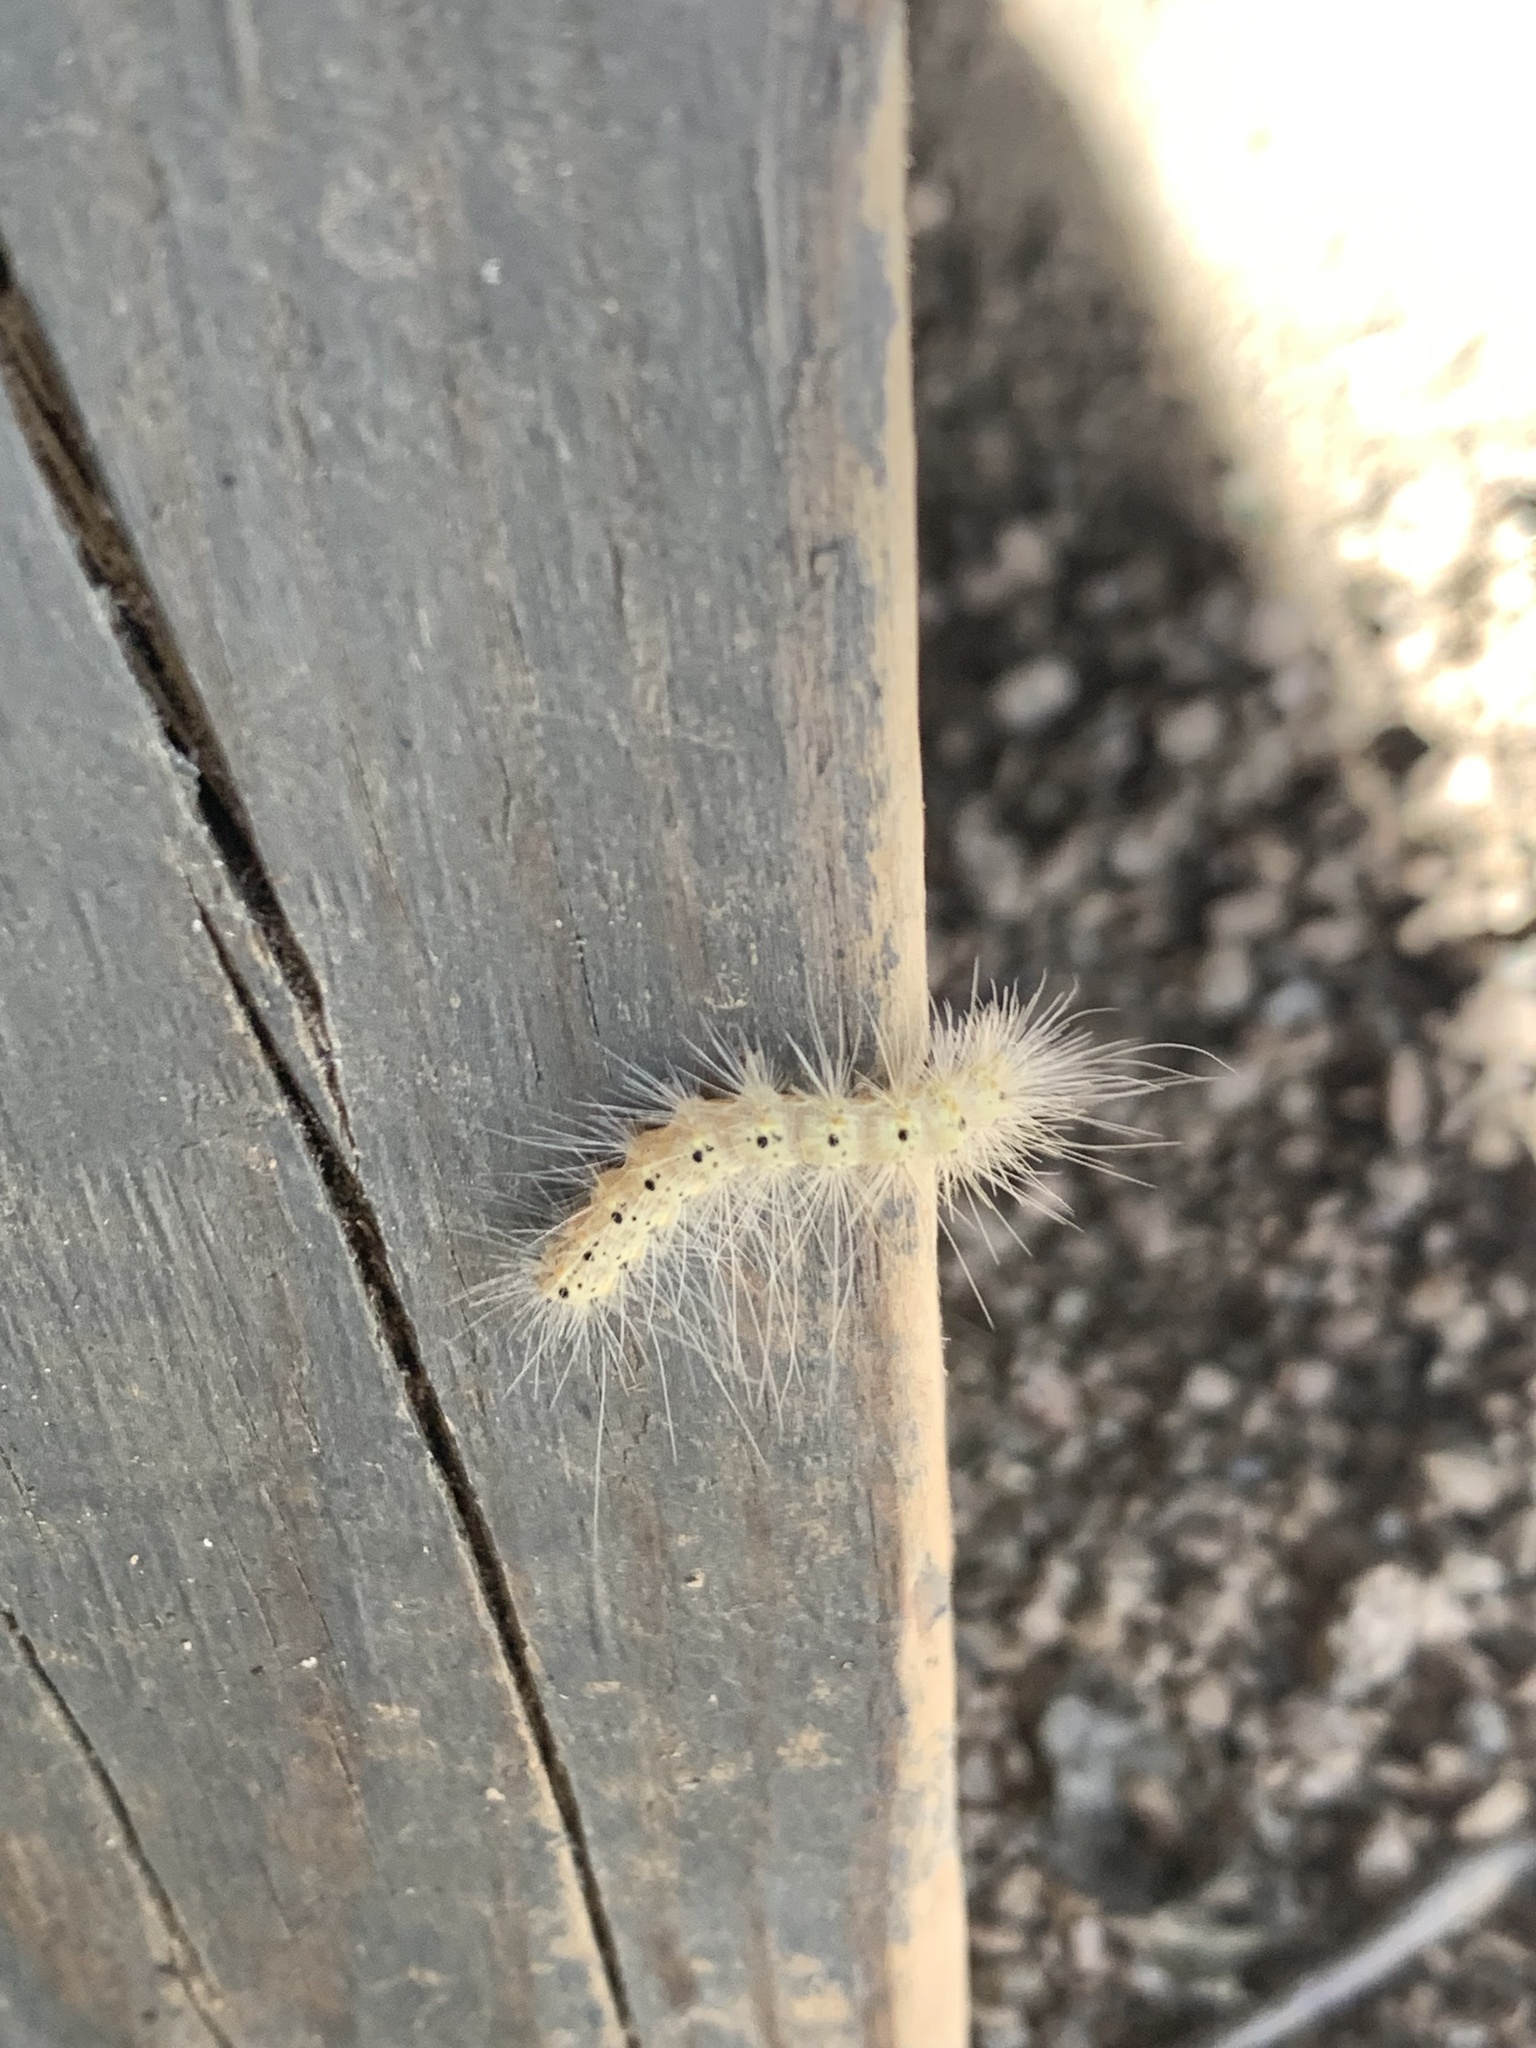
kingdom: Animalia
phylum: Arthropoda
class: Insecta
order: Lepidoptera
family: Erebidae
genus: Hyphantria
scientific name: Hyphantria cunea
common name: American white moth
